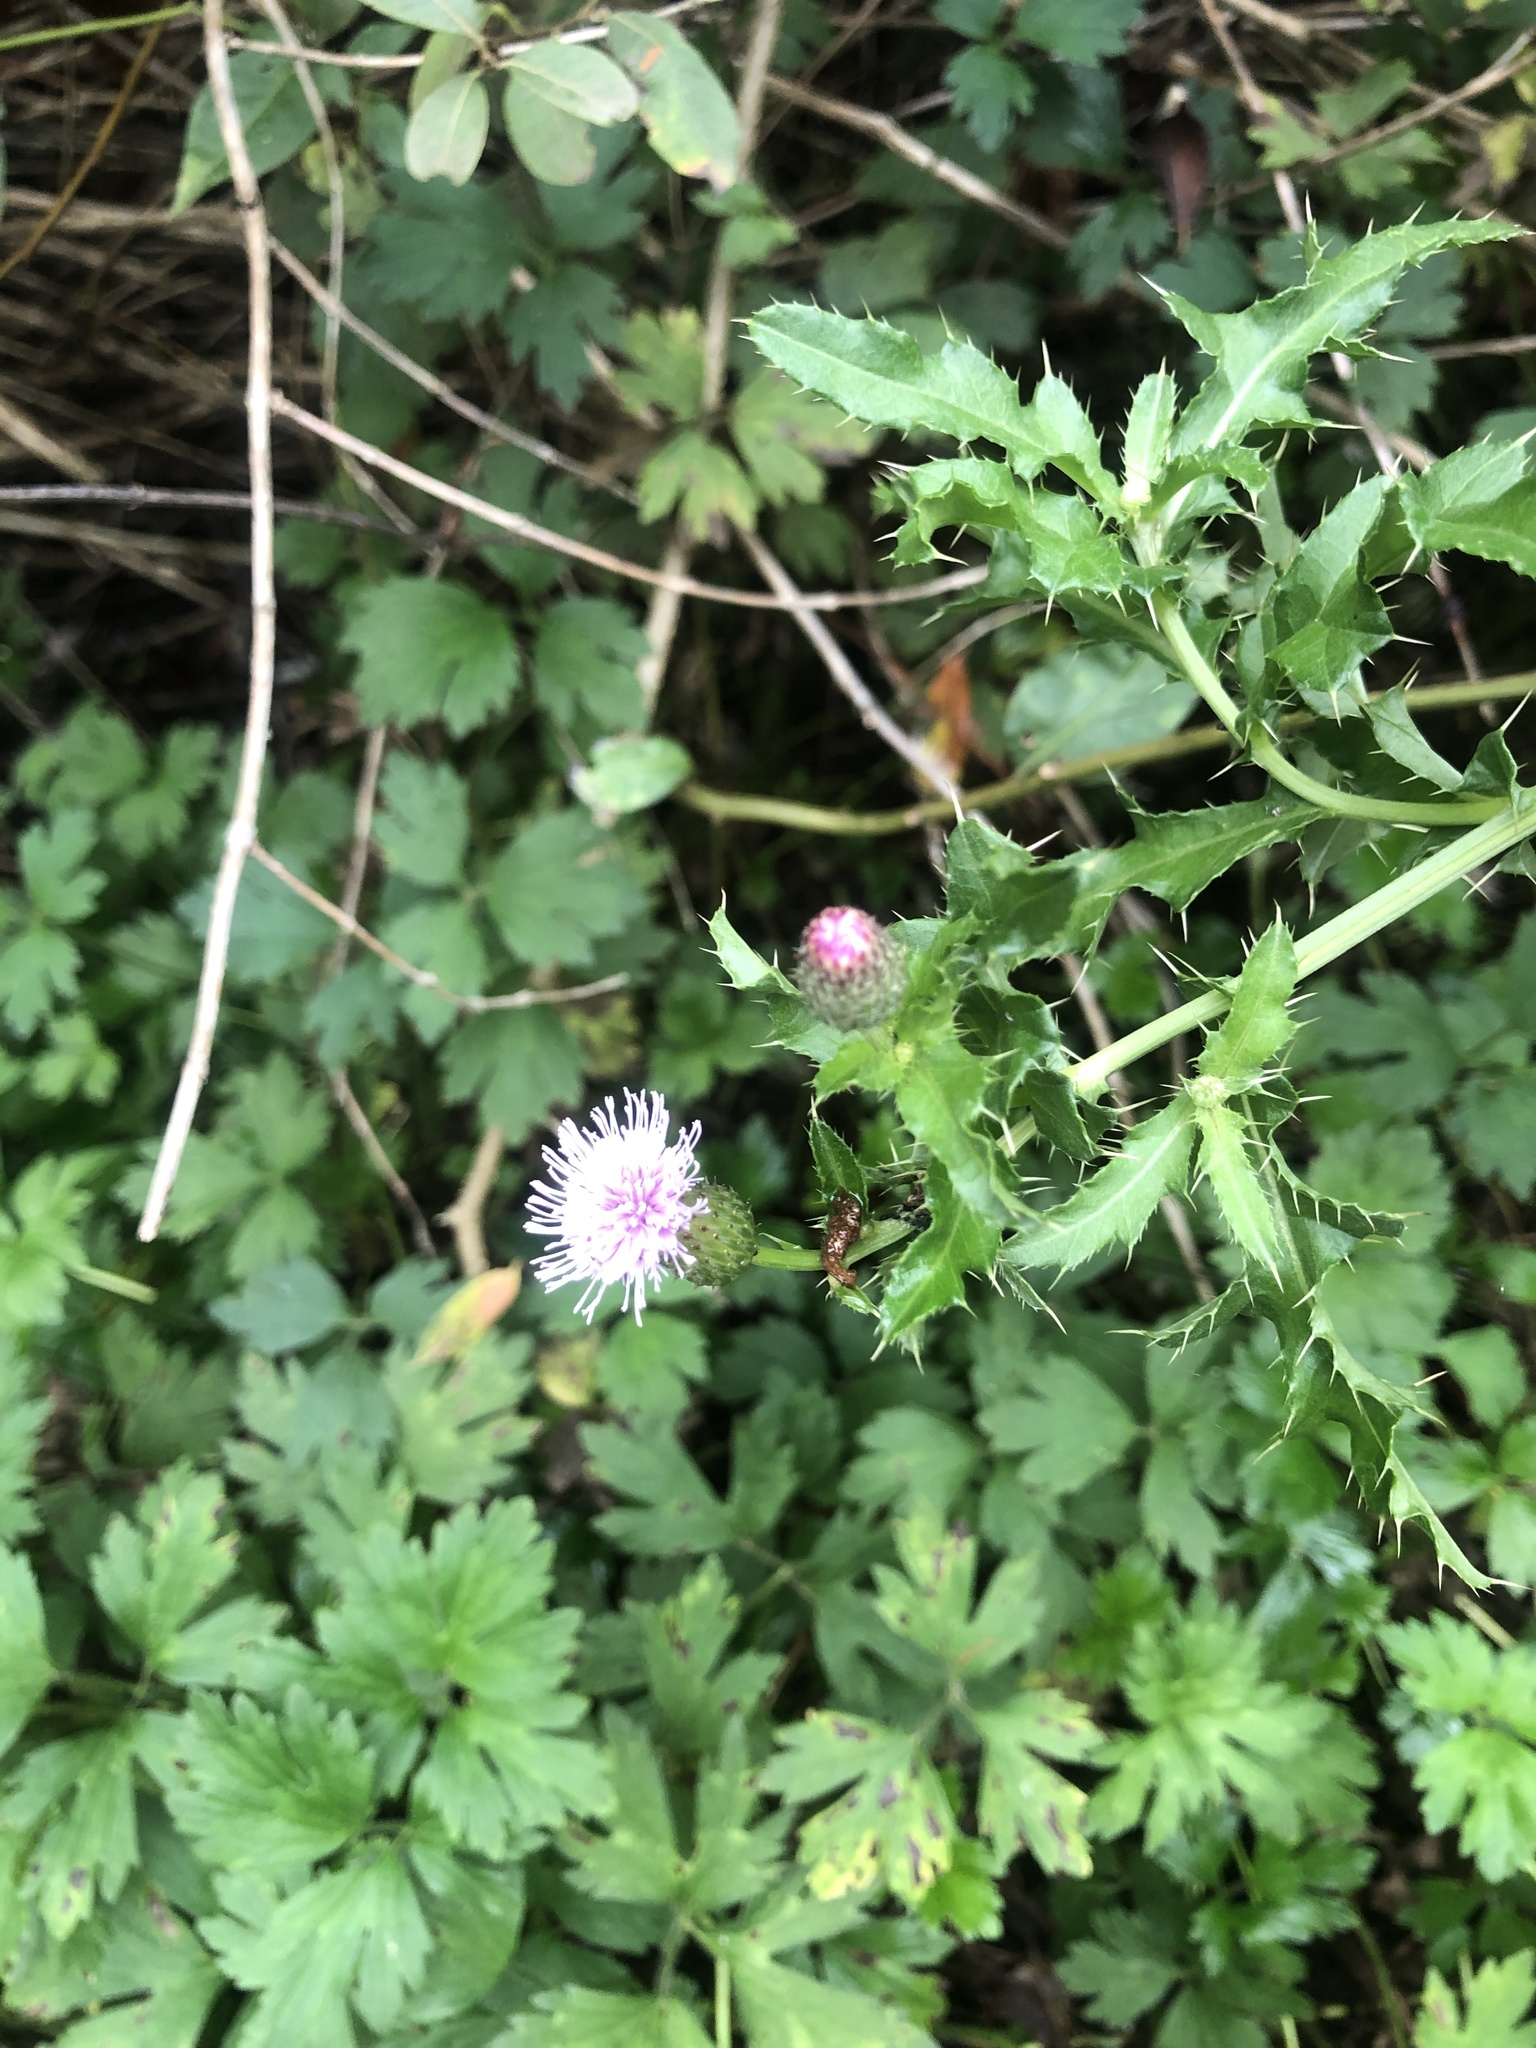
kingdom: Plantae
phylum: Tracheophyta
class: Magnoliopsida
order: Asterales
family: Asteraceae
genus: Cirsium
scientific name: Cirsium arvense
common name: Creeping thistle
